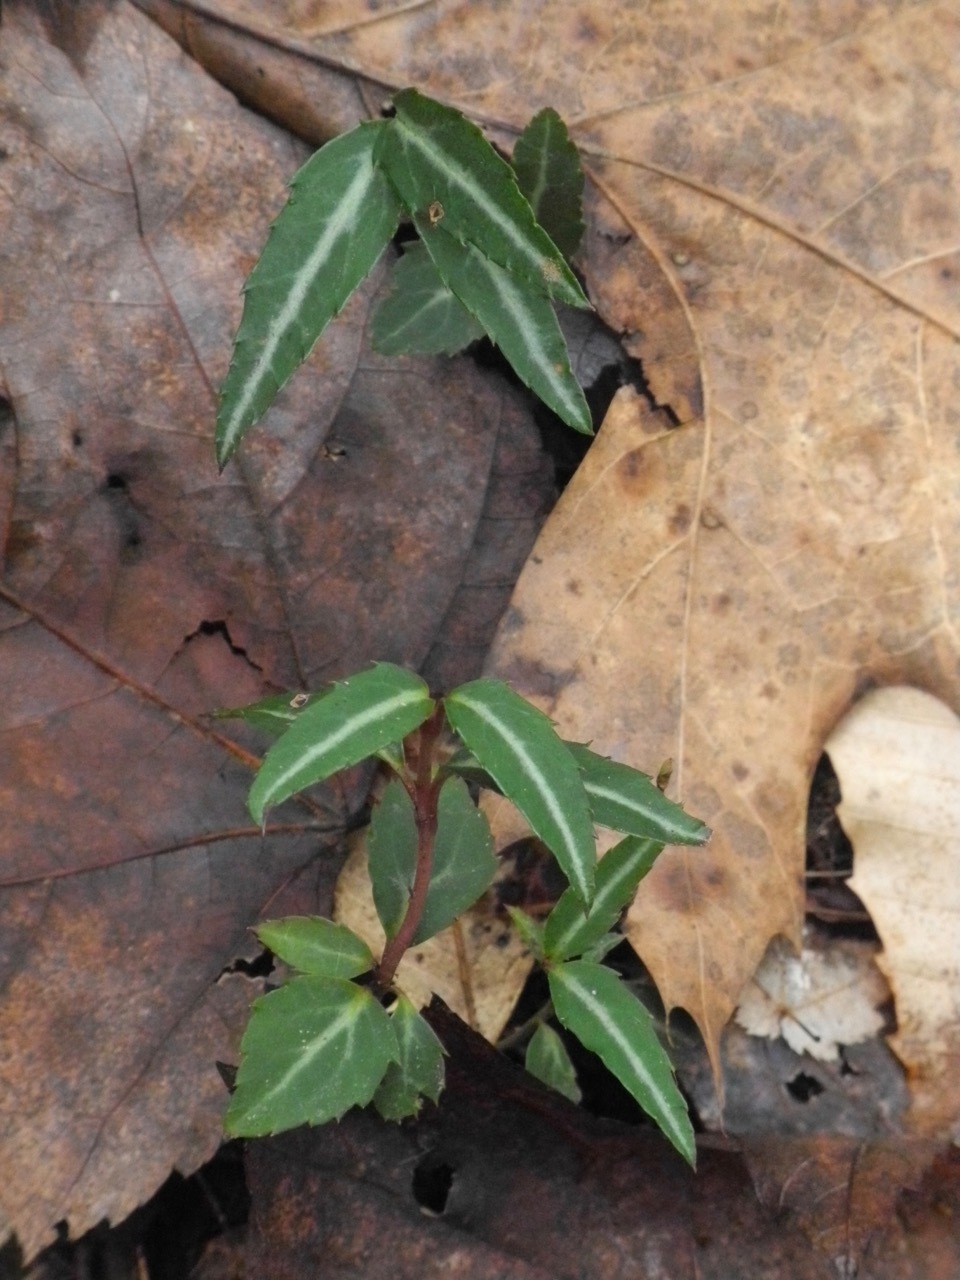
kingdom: Plantae
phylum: Tracheophyta
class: Magnoliopsida
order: Ericales
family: Ericaceae
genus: Chimaphila
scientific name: Chimaphila maculata
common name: Spotted pipsissewa
